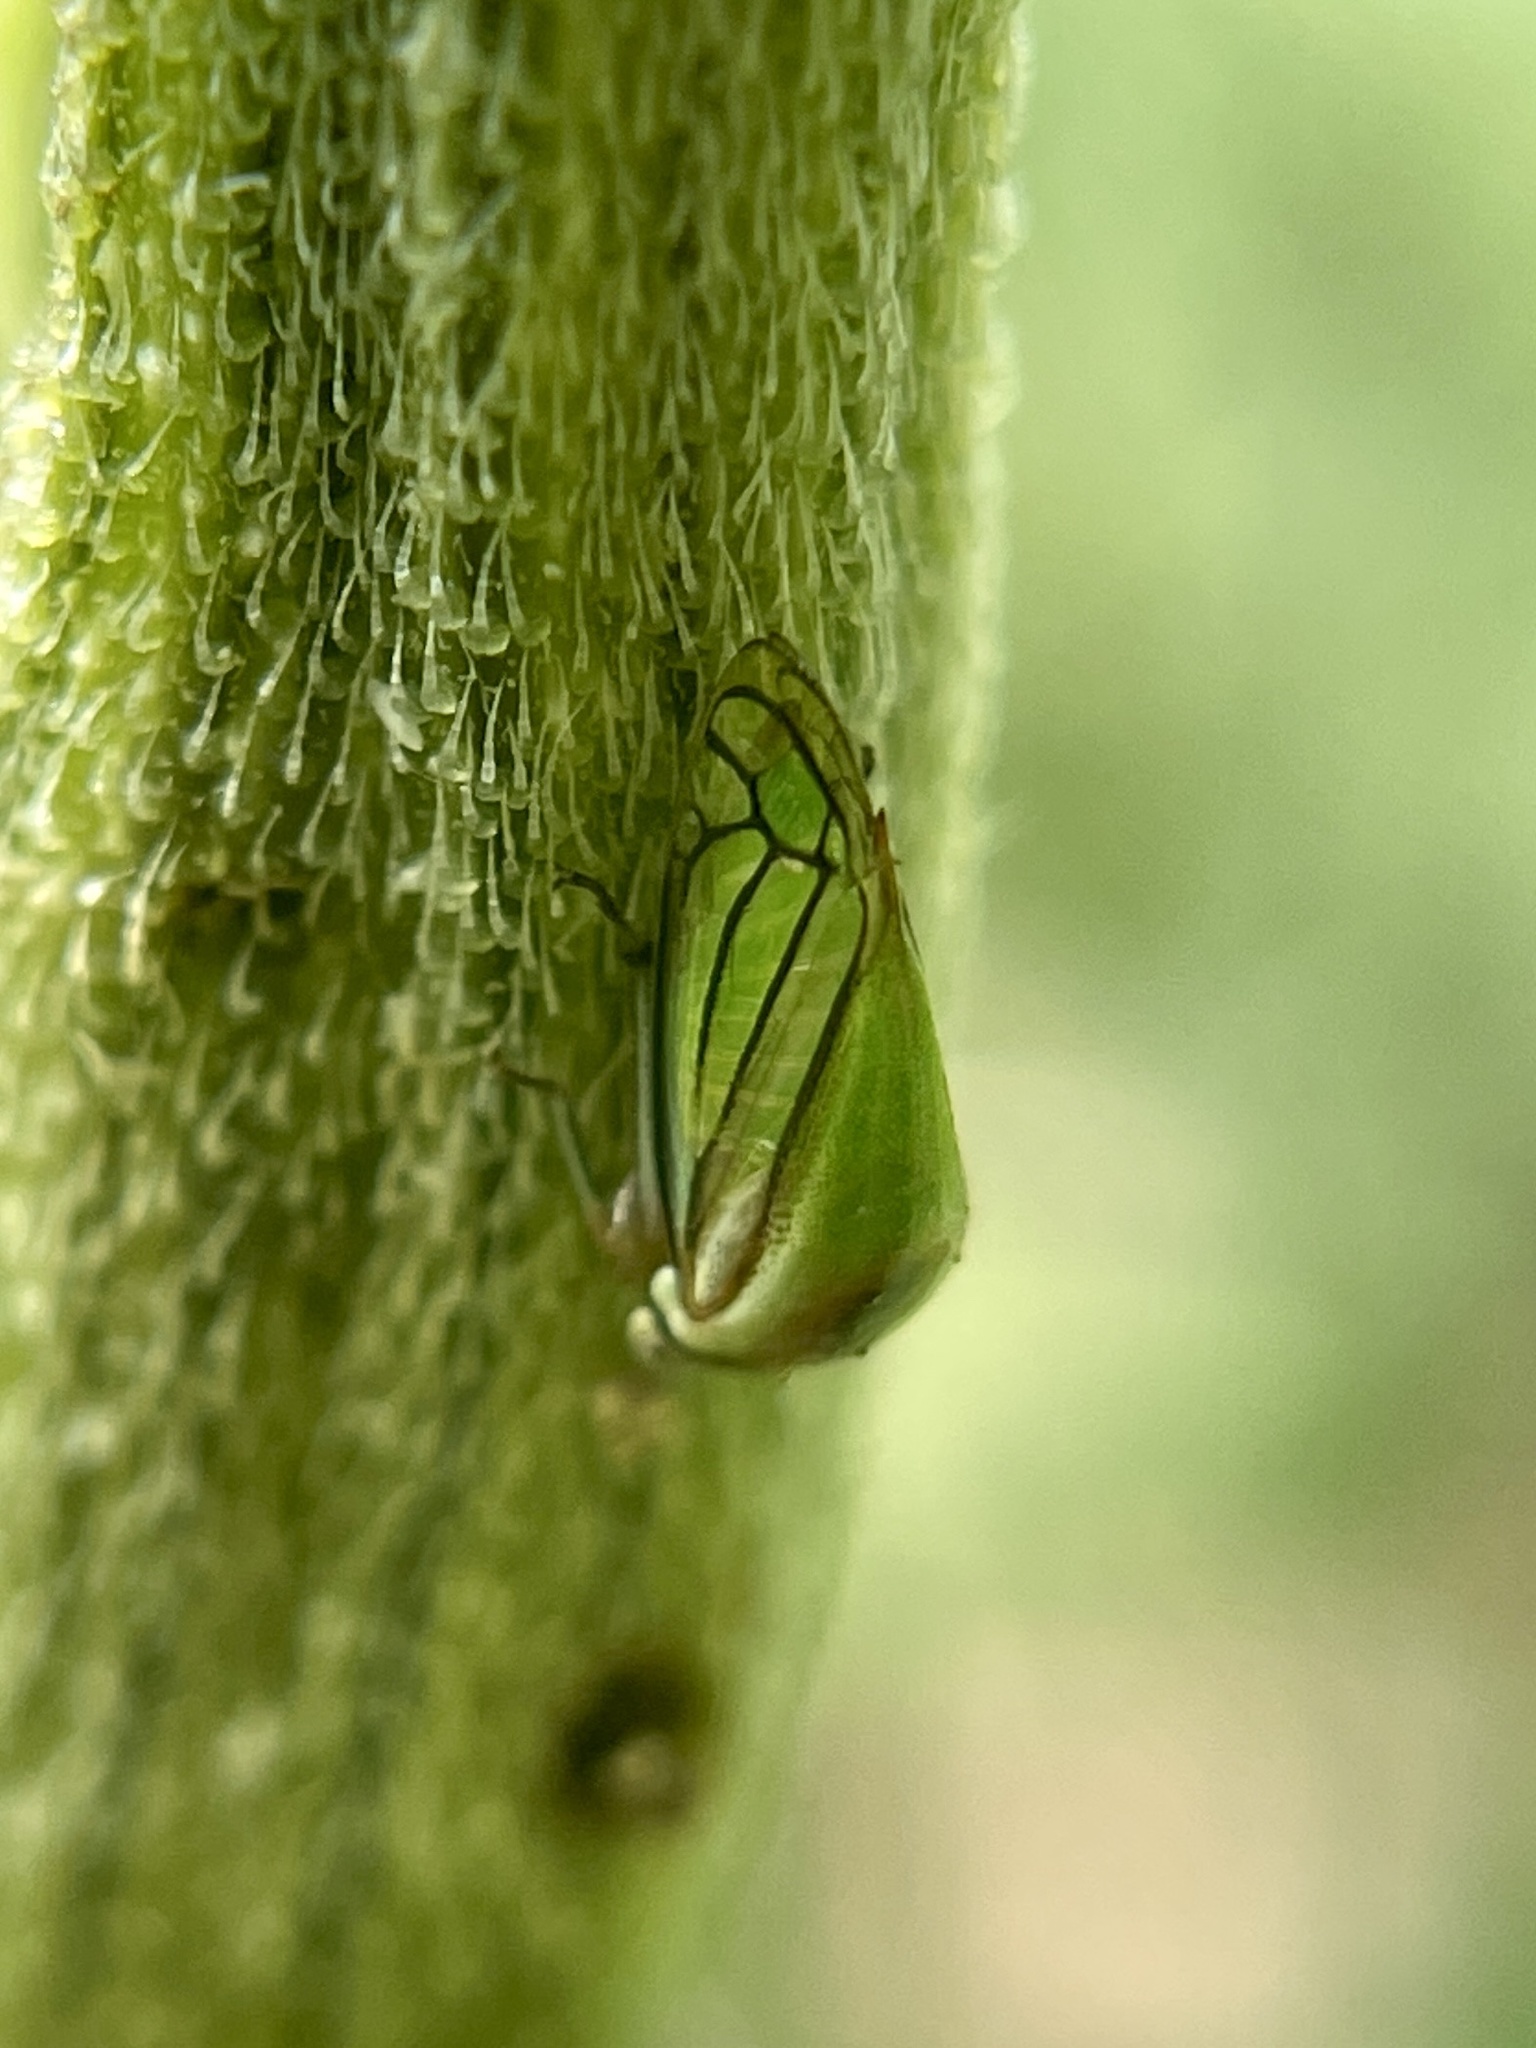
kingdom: Animalia
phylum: Arthropoda
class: Insecta
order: Hemiptera
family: Membracidae
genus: Acutalis
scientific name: Acutalis tartarea
